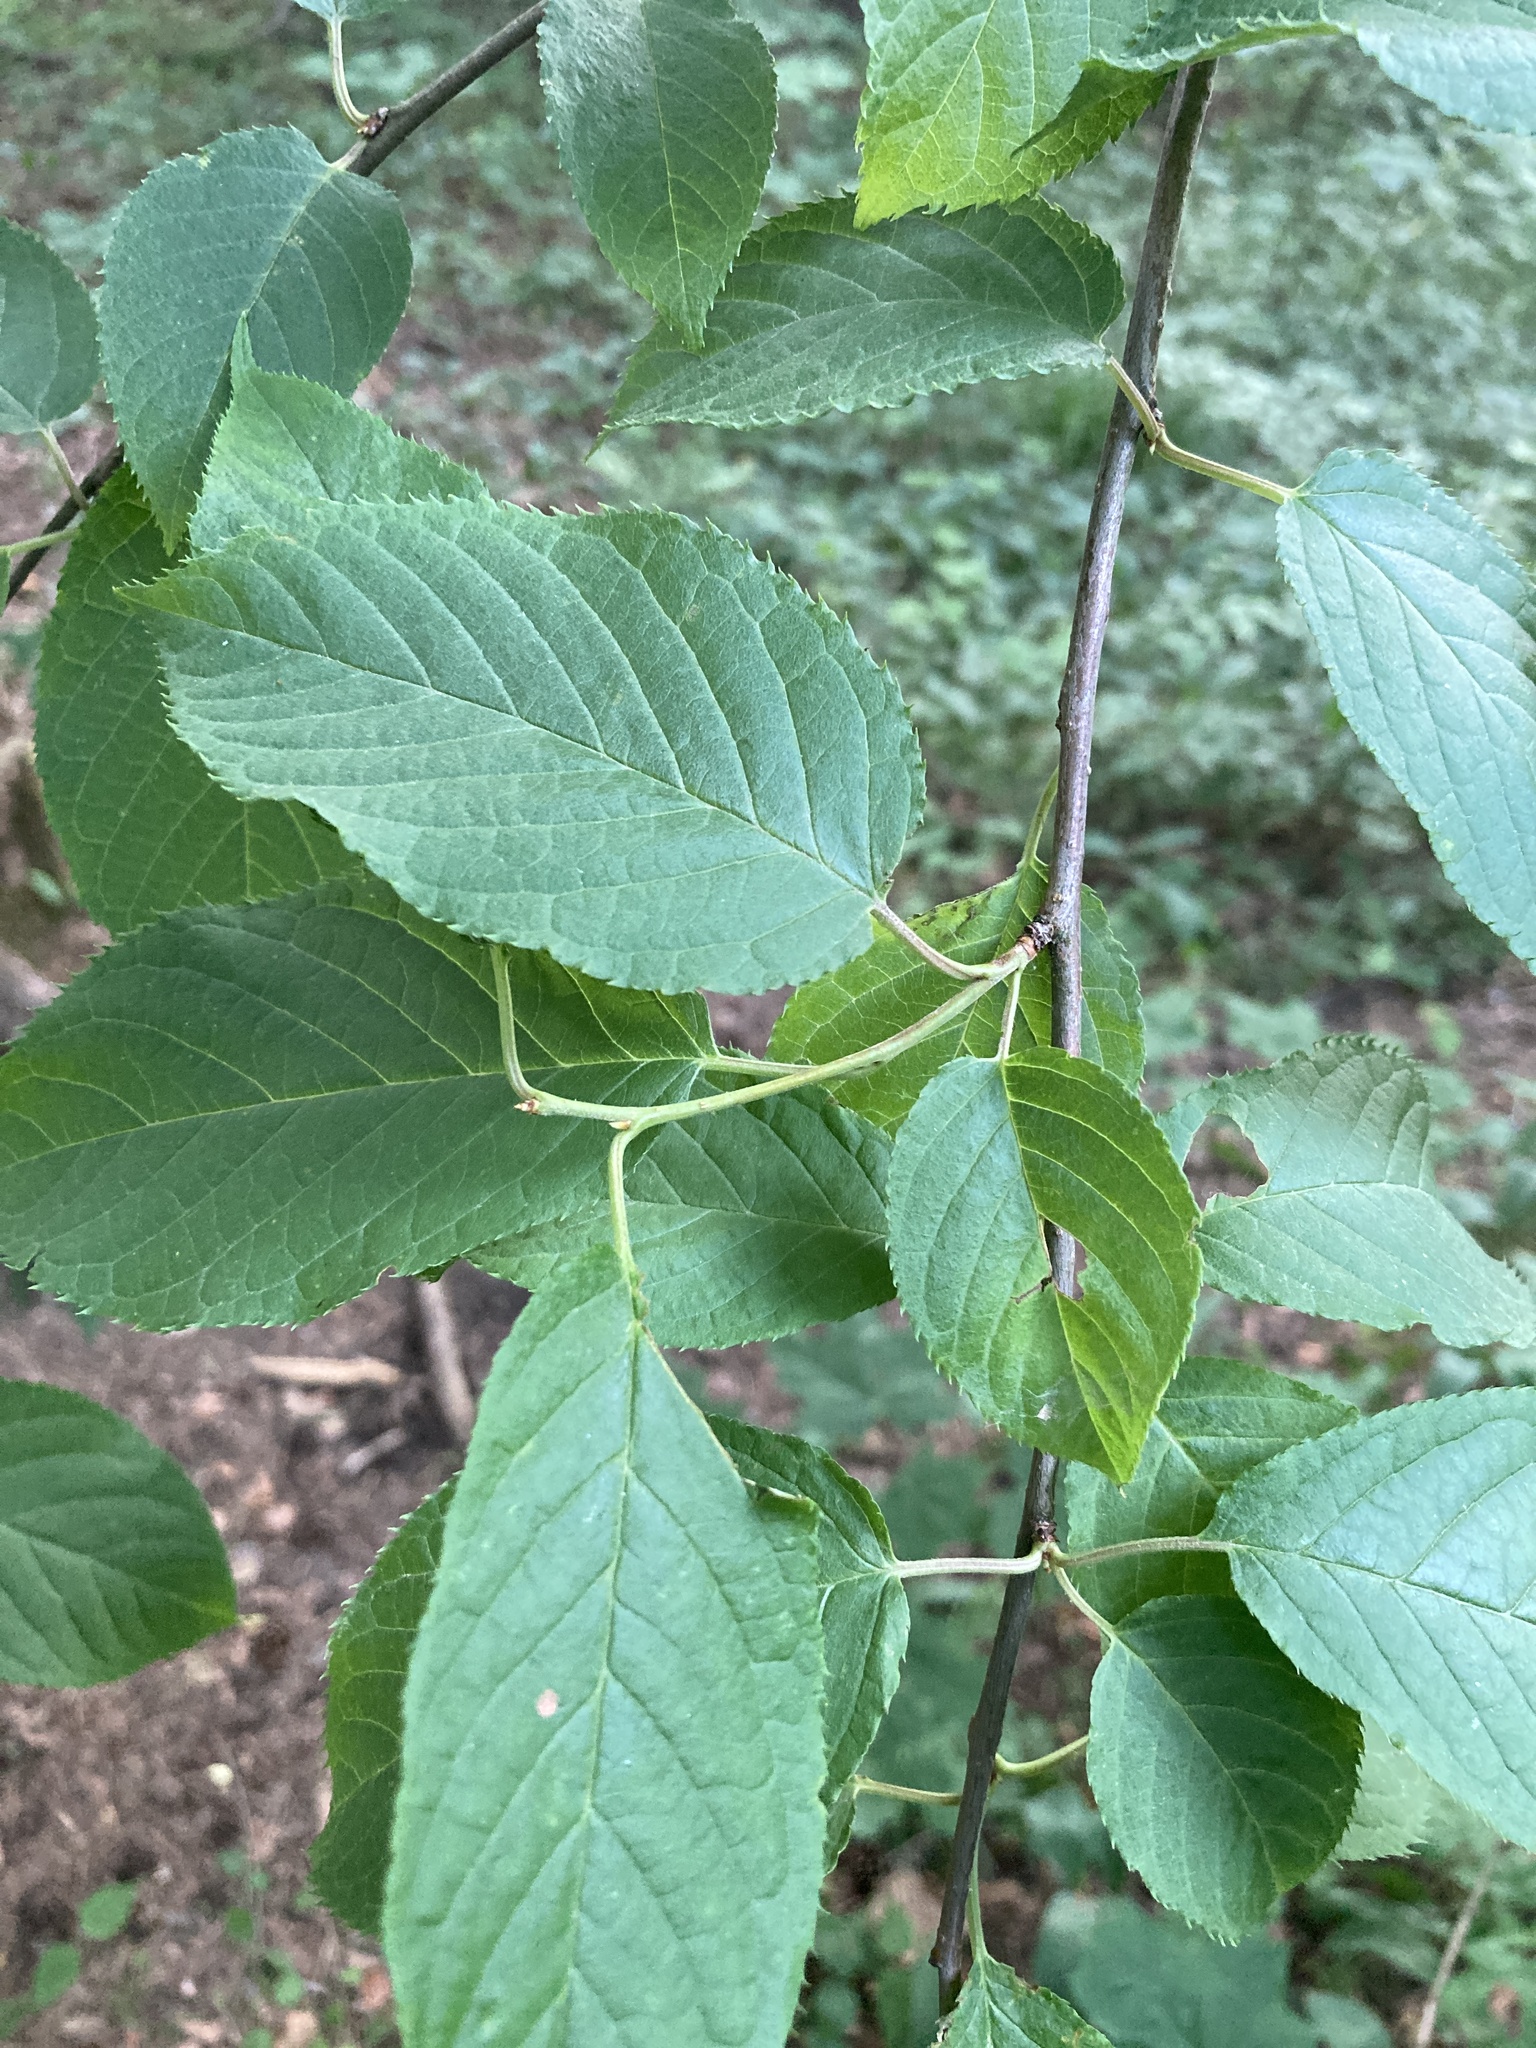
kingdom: Plantae
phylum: Tracheophyta
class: Magnoliopsida
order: Rosales
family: Rosaceae
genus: Prunus
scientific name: Prunus glandulifolia
